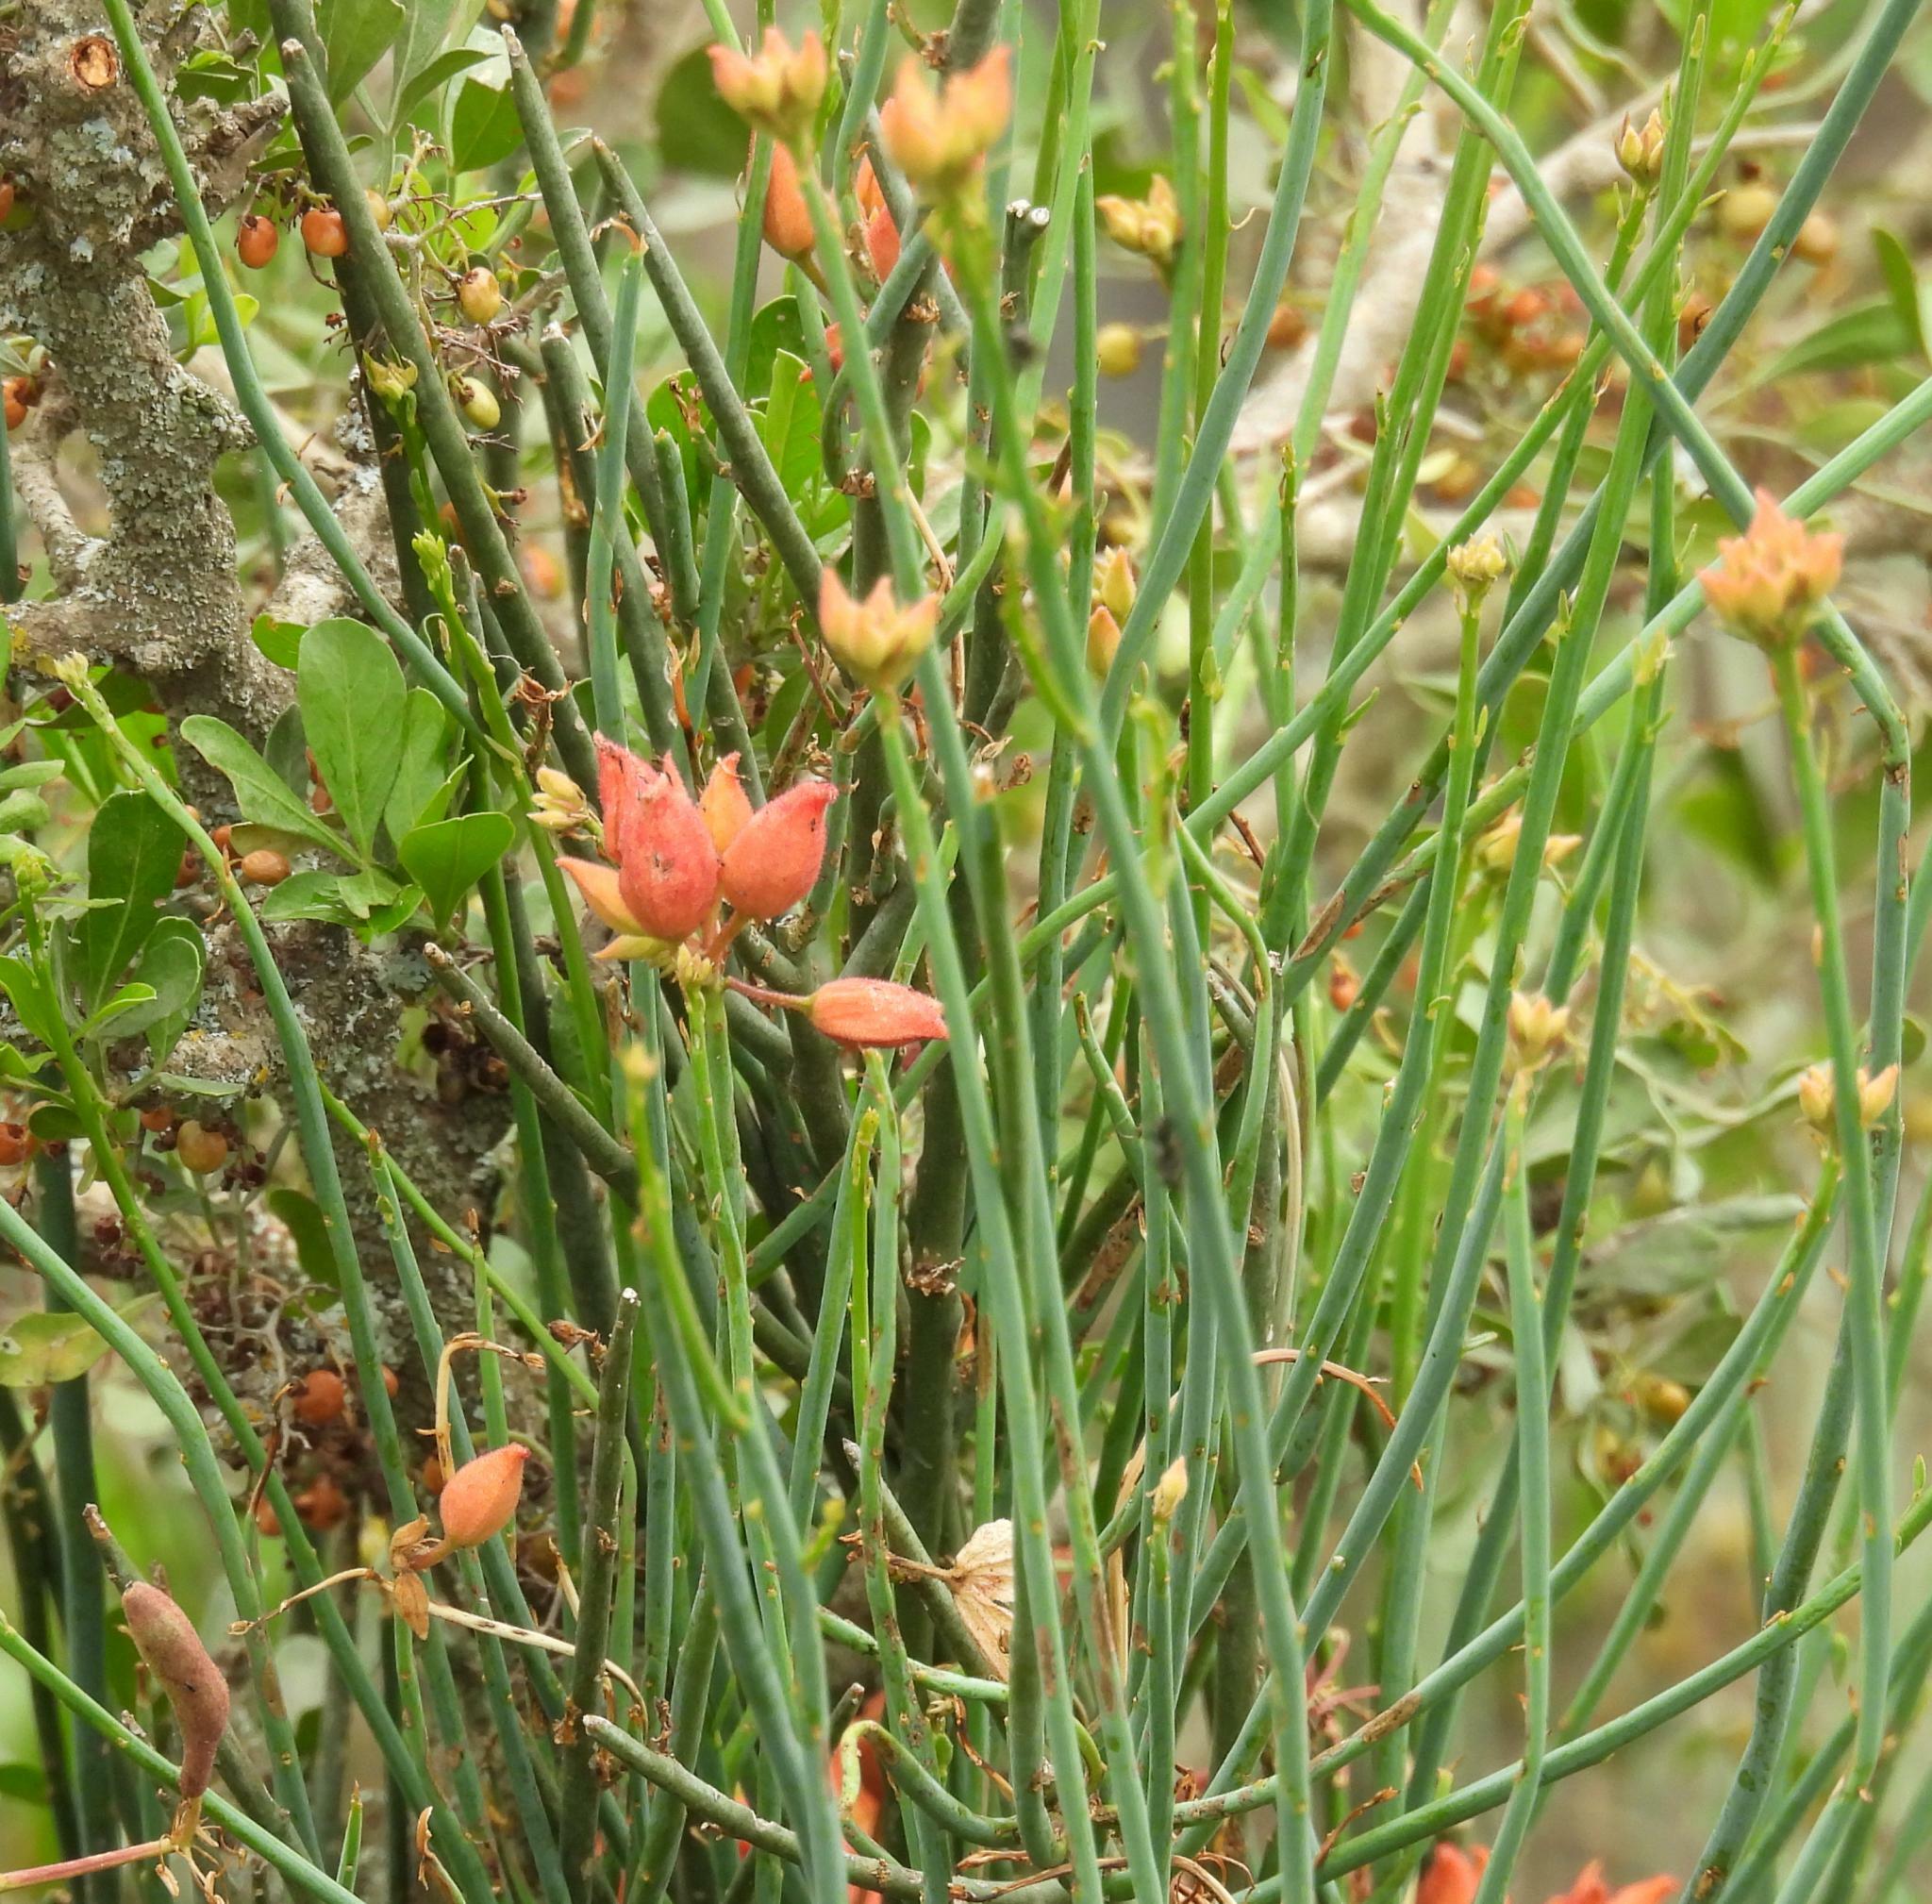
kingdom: Plantae
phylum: Tracheophyta
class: Magnoliopsida
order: Brassicales
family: Capparaceae
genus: Cadaba
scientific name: Cadaba aphylla
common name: Black storm
